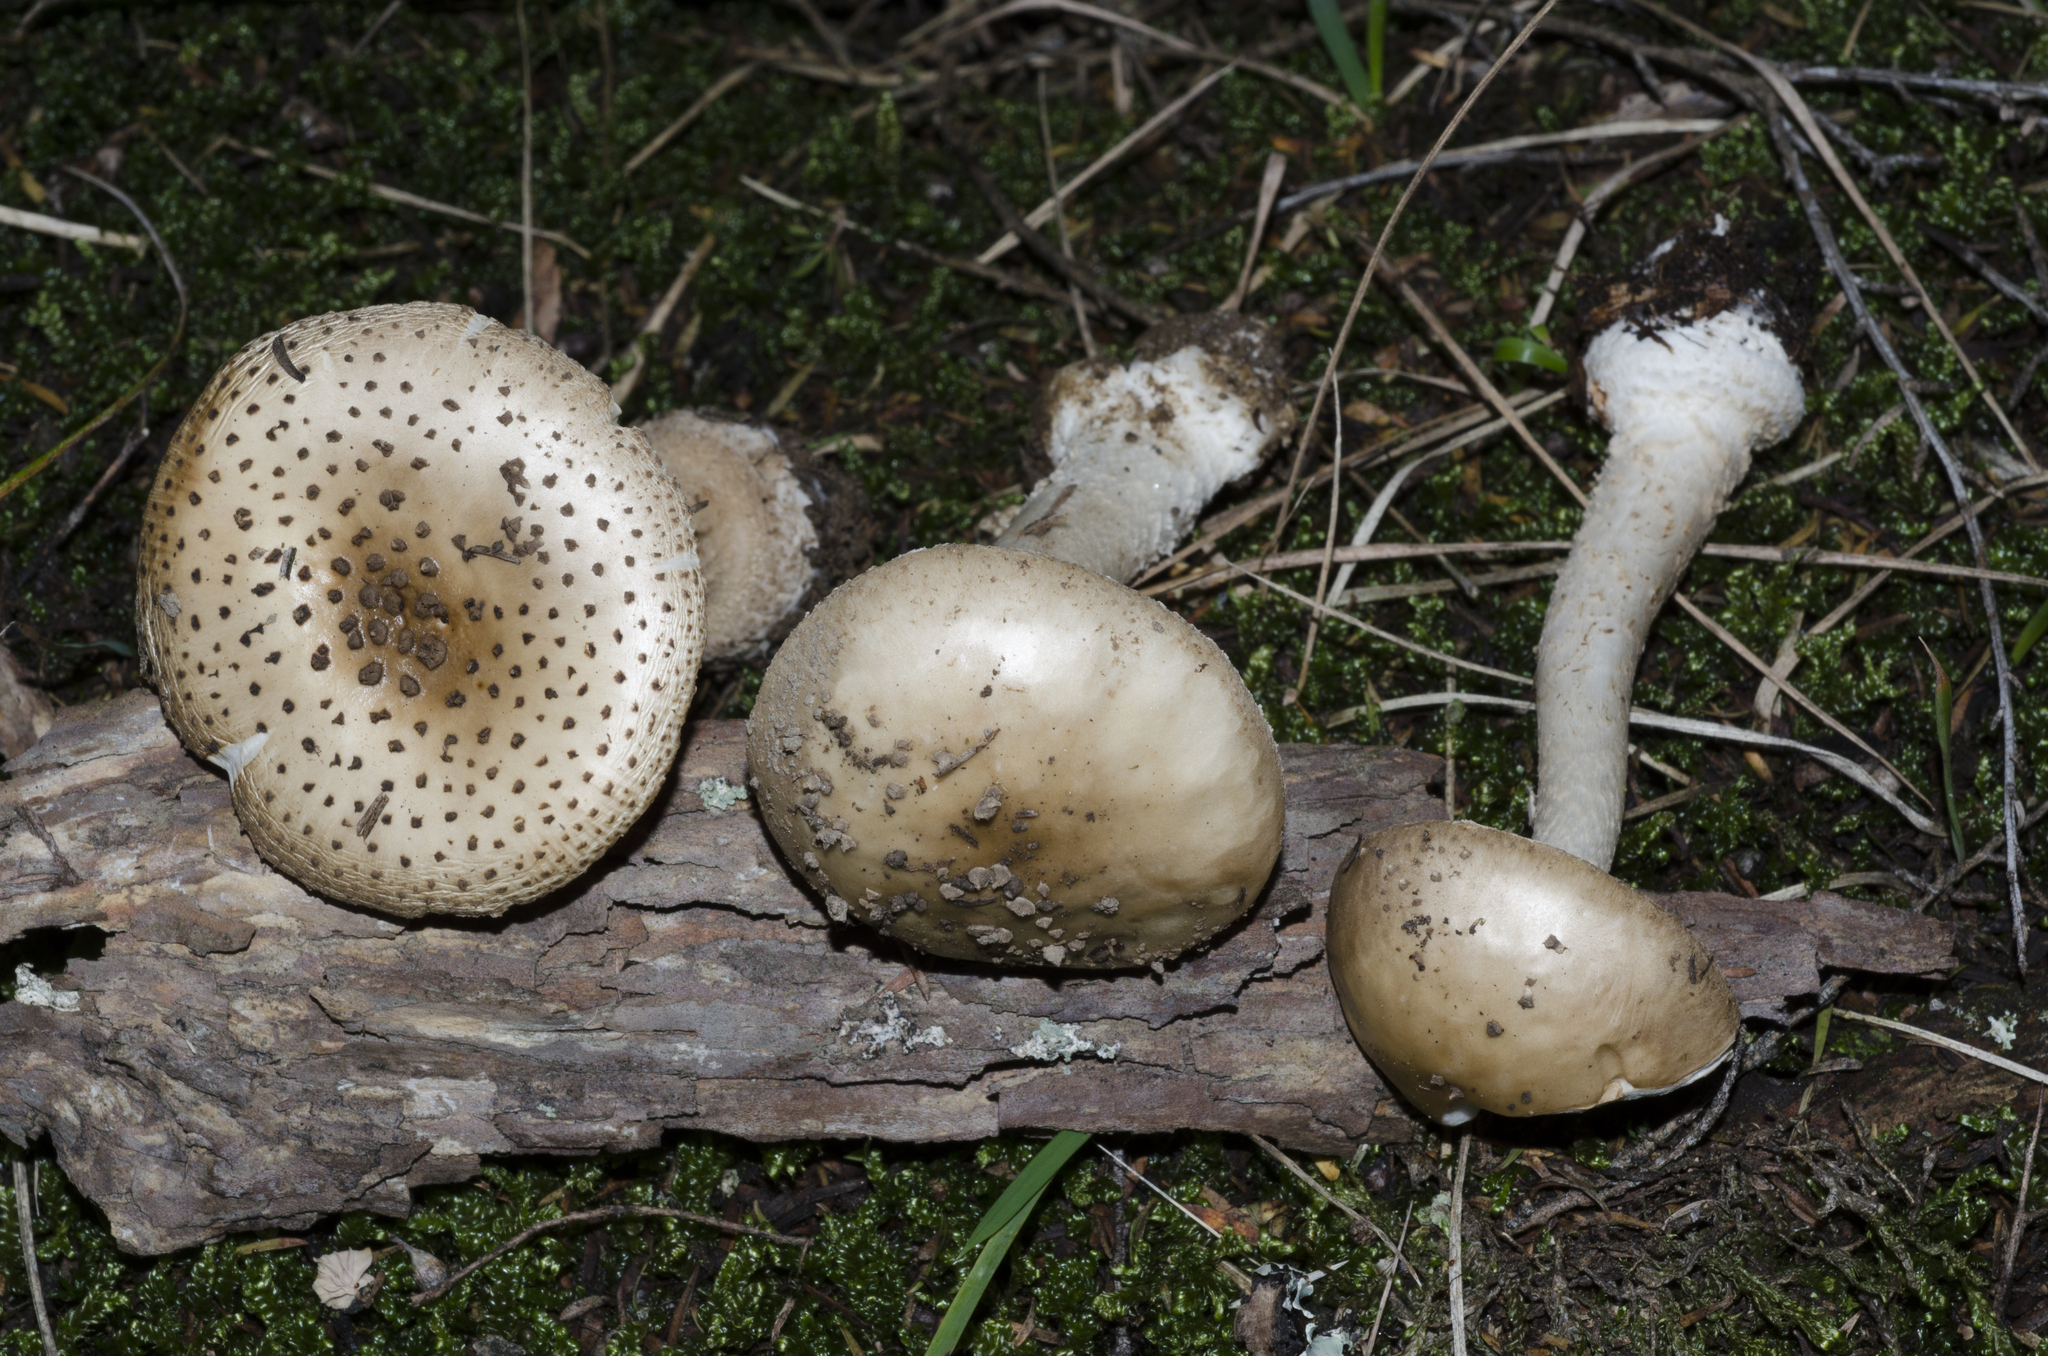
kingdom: Fungi
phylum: Basidiomycota
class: Agaricomycetes
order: Agaricales
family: Amanitaceae
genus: Amanita
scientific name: Amanita australis
